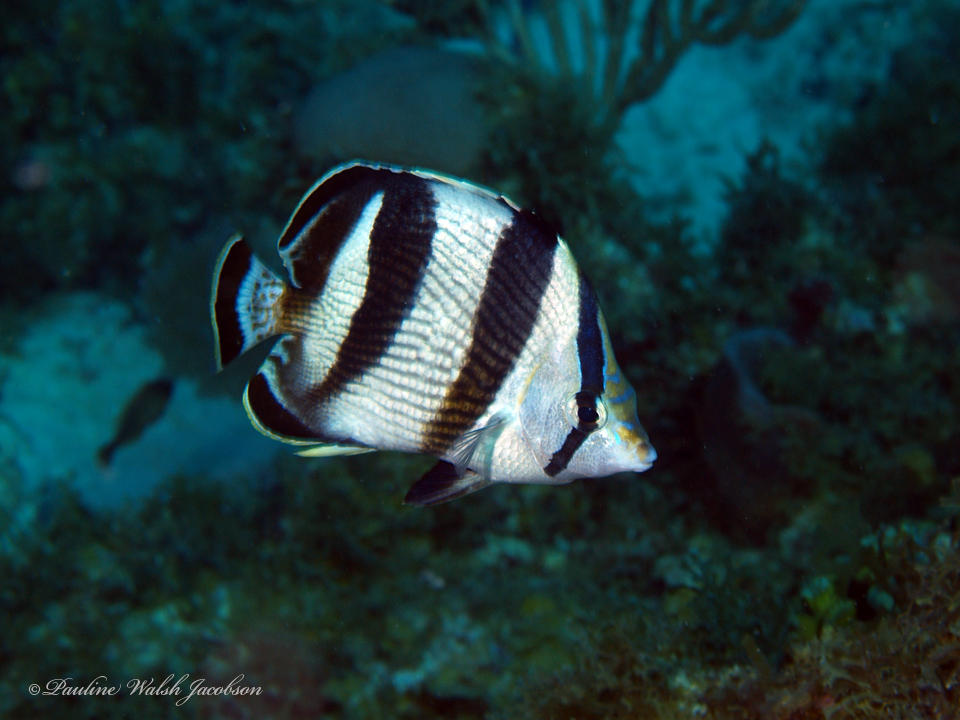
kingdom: Animalia
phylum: Chordata
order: Perciformes
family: Chaetodontidae
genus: Chaetodon
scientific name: Chaetodon striatus
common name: Banded butterflyfish
